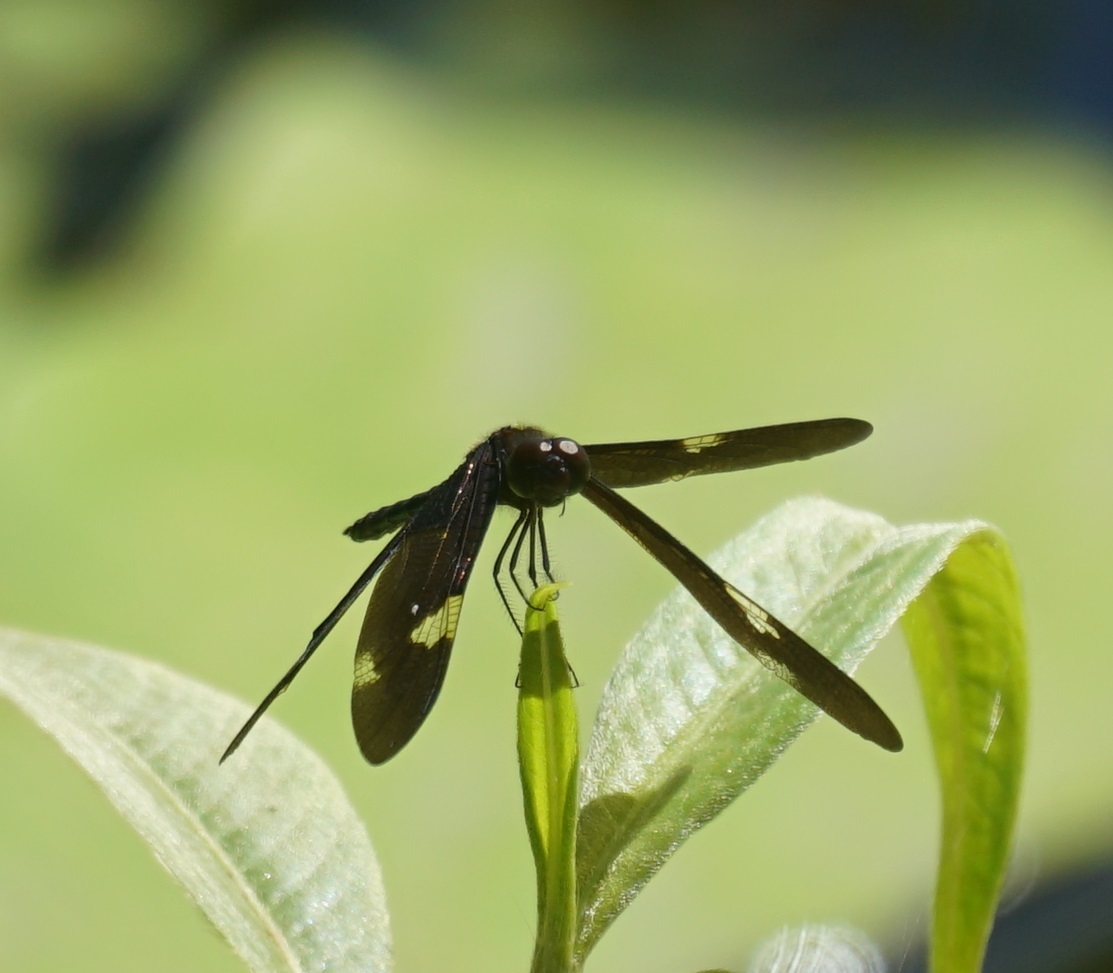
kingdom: Animalia
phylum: Arthropoda
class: Insecta
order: Odonata
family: Libellulidae
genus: Rhyothemis
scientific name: Rhyothemis princeps
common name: Sapphire flutterer
